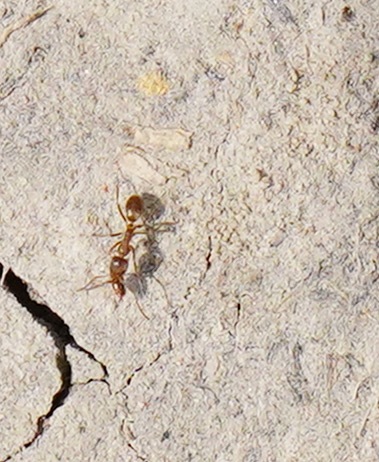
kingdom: Animalia
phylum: Arthropoda
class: Insecta
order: Hymenoptera
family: Formicidae
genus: Linepithema
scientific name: Linepithema humile
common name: Argentine ant
